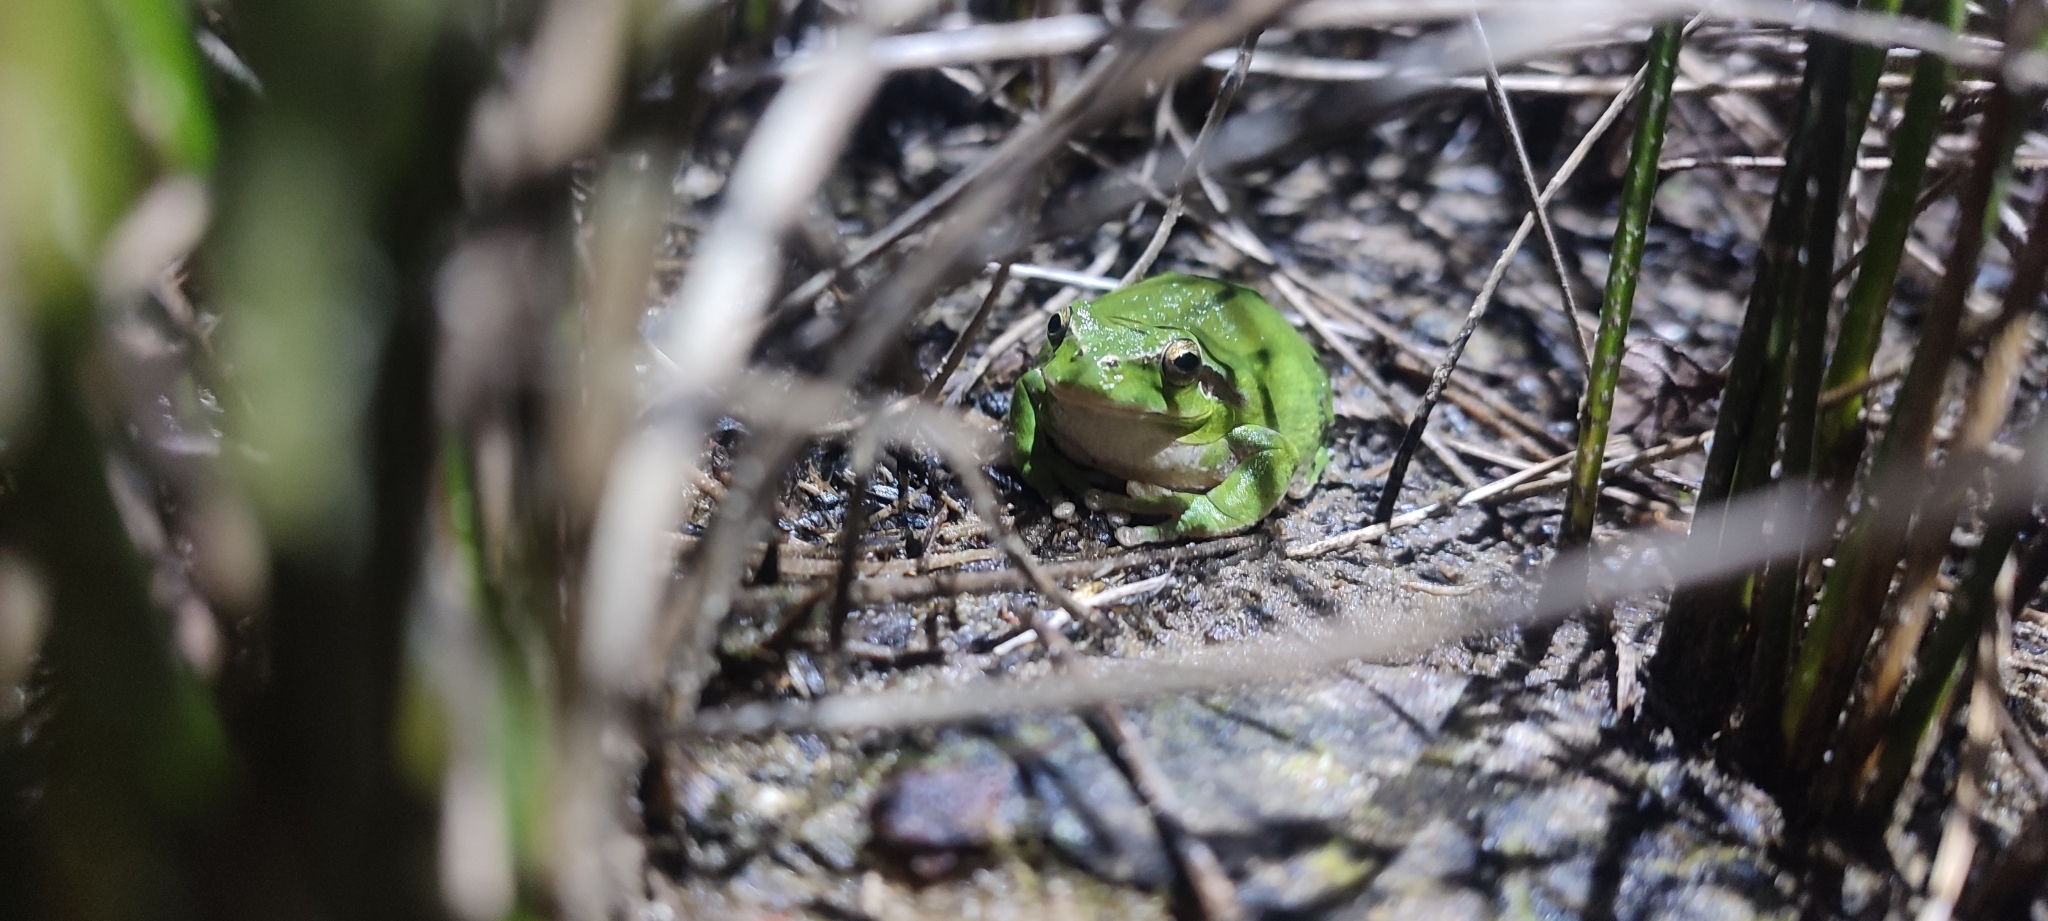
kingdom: Animalia
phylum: Chordata
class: Amphibia
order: Anura
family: Hylidae
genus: Hyla
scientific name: Hyla meridionalis
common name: Stripeless tree frog
